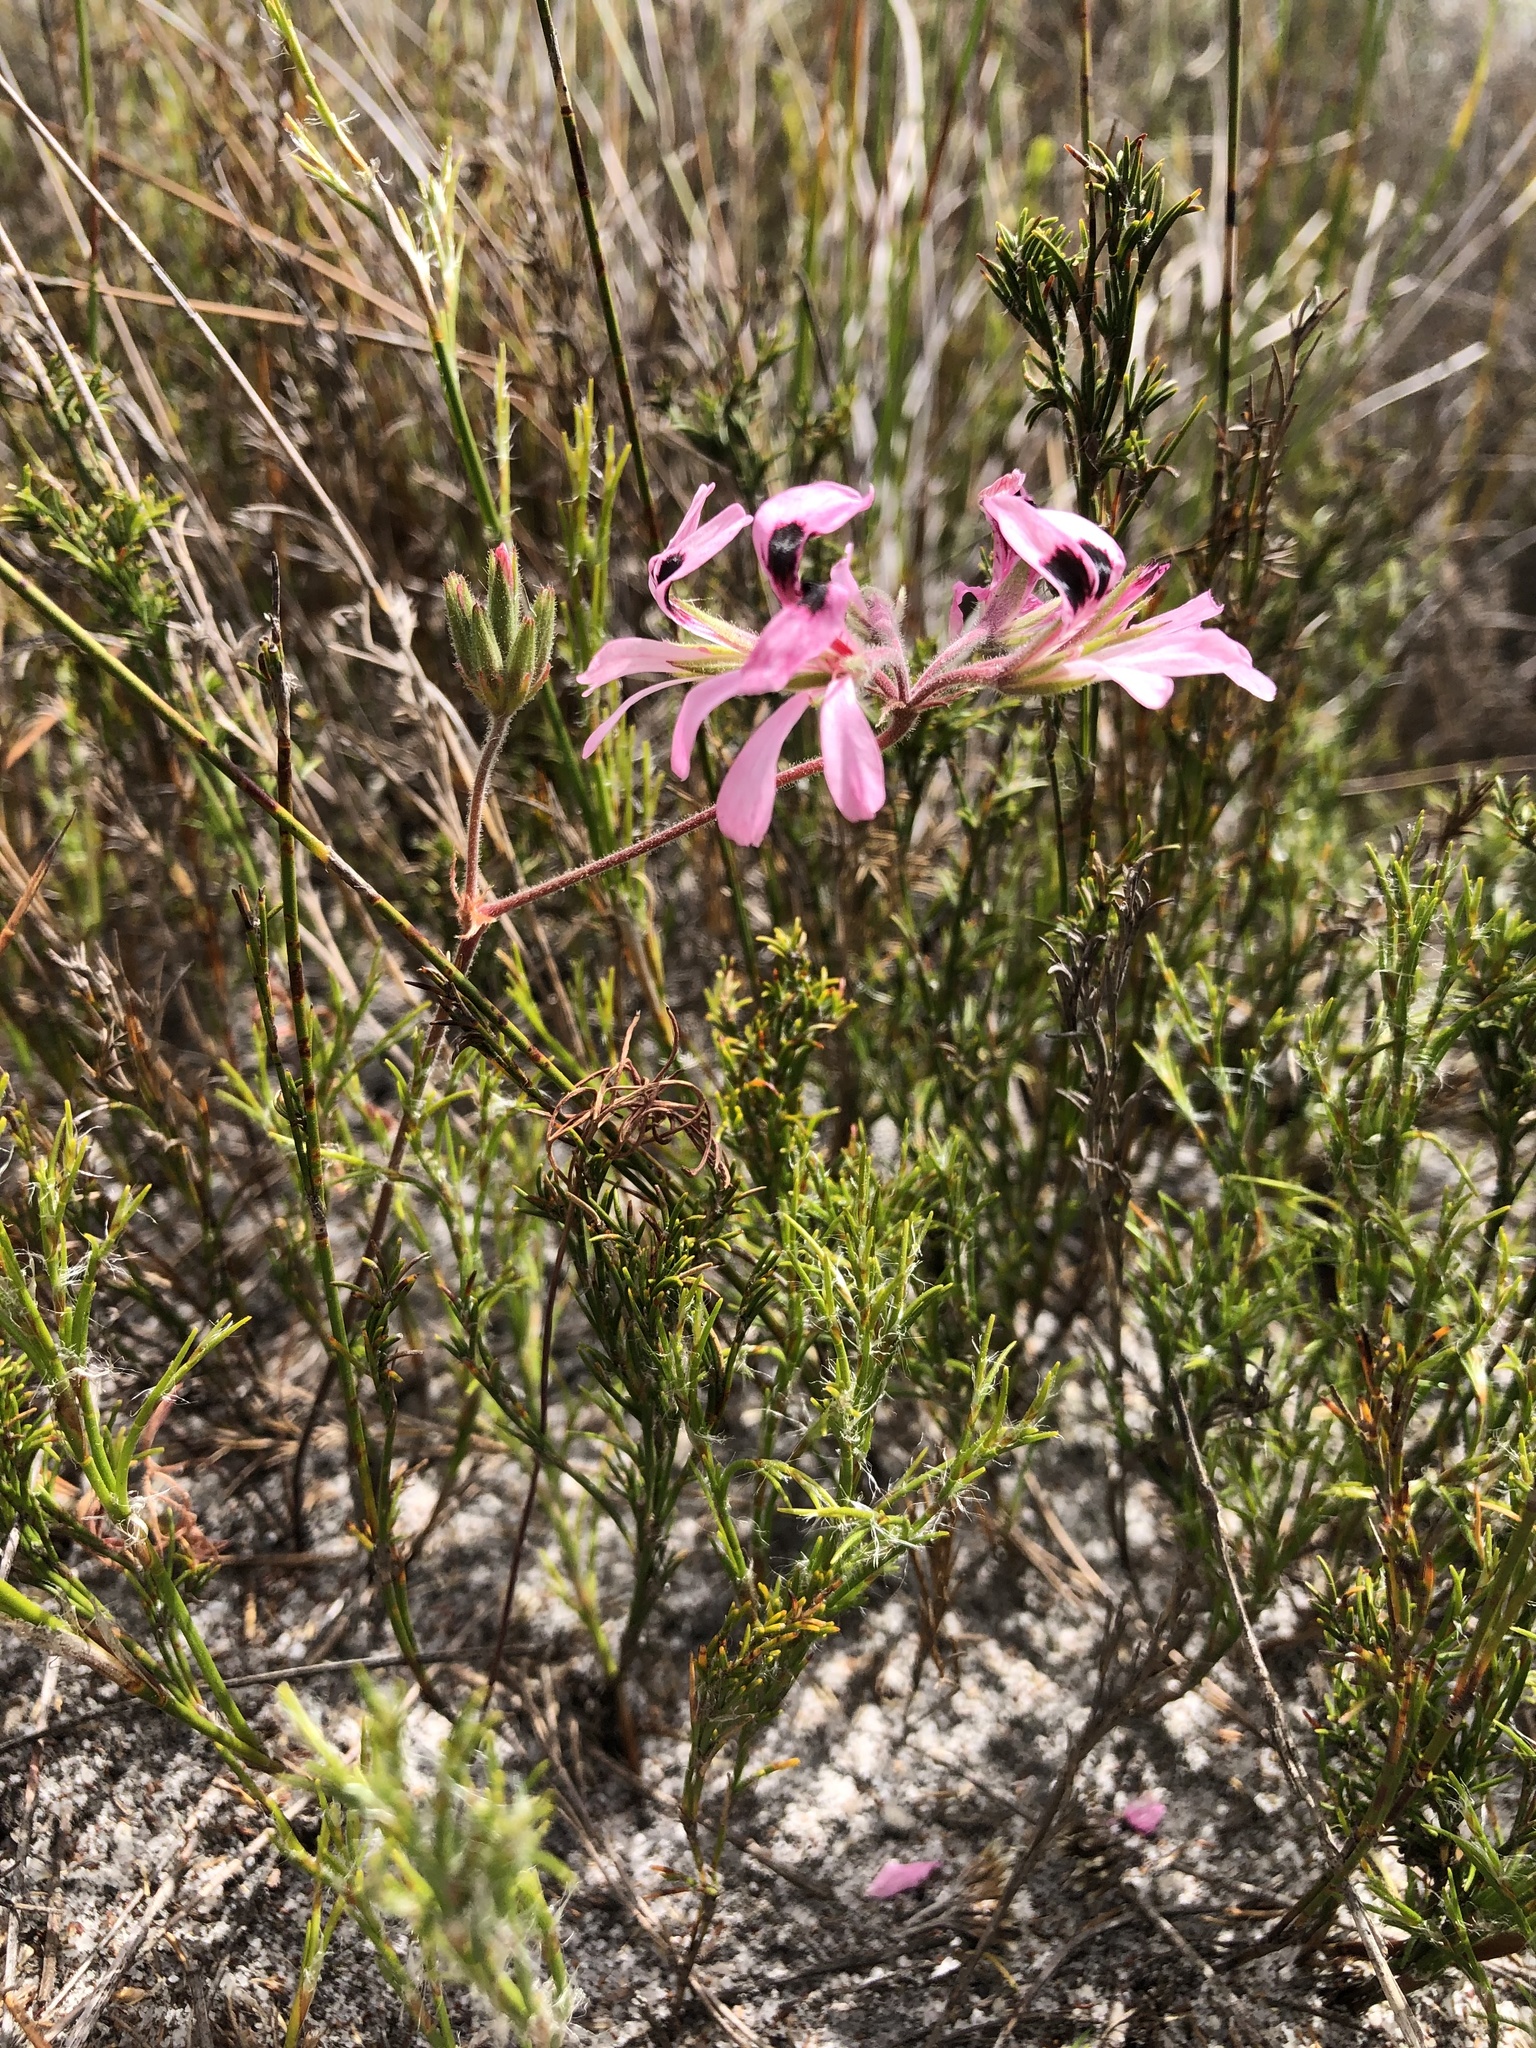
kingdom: Plantae
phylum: Tracheophyta
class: Magnoliopsida
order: Geraniales
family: Geraniaceae
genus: Pelargonium
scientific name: Pelargonium psammophilum
